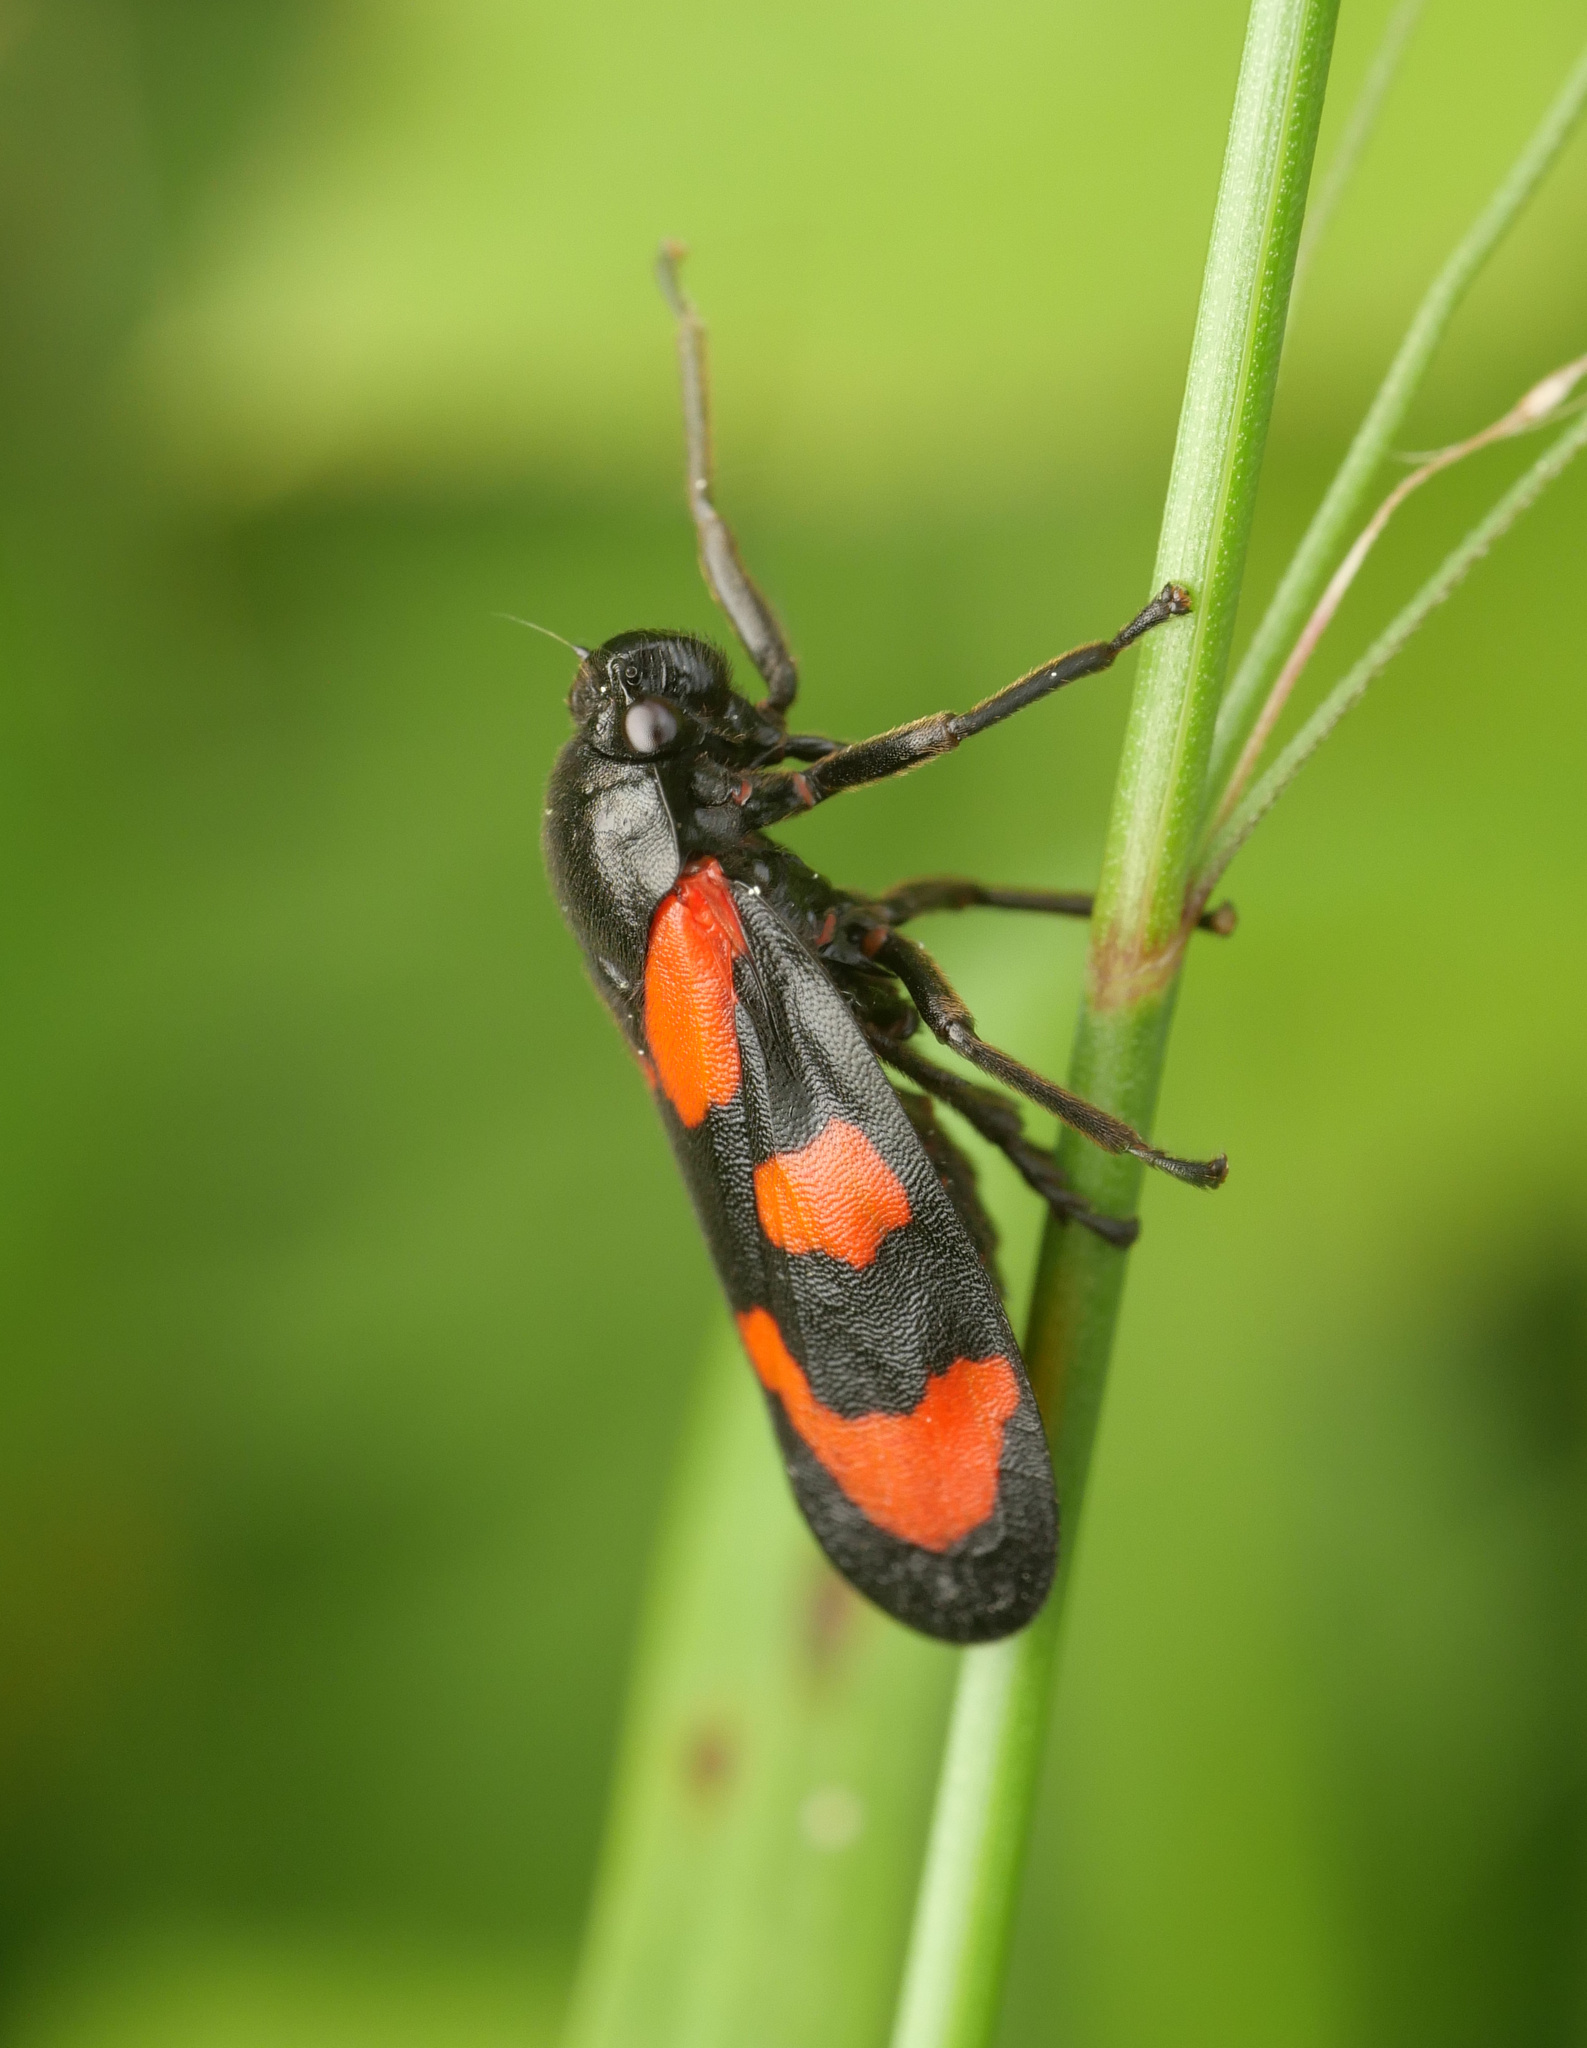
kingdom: Animalia
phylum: Arthropoda
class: Insecta
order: Hemiptera
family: Cercopidae
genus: Cercopis
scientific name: Cercopis vulnerata
